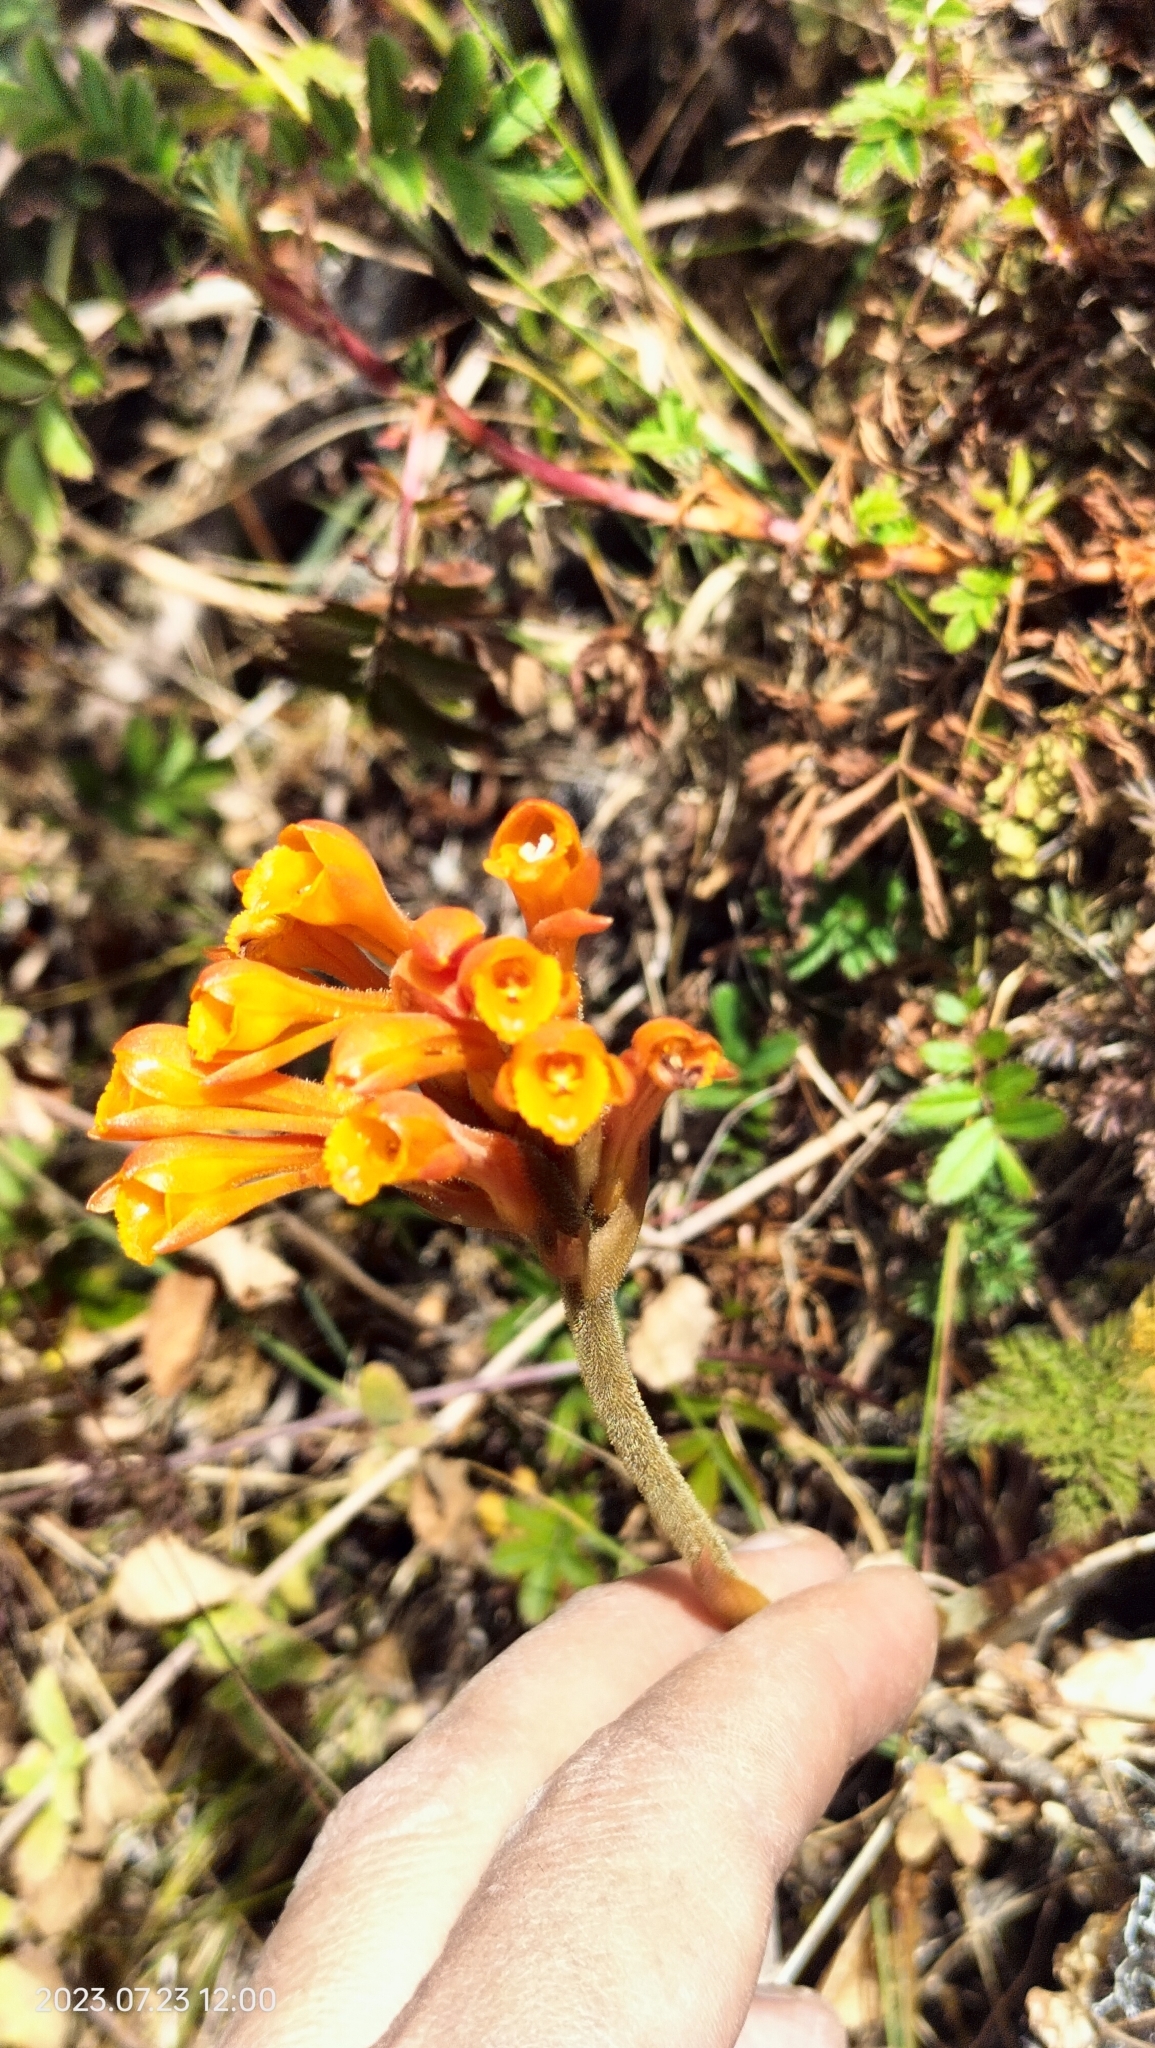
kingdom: Plantae
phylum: Tracheophyta
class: Liliopsida
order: Asparagales
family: Orchidaceae
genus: Sauroglossum
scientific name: Sauroglossum aurantiacum
